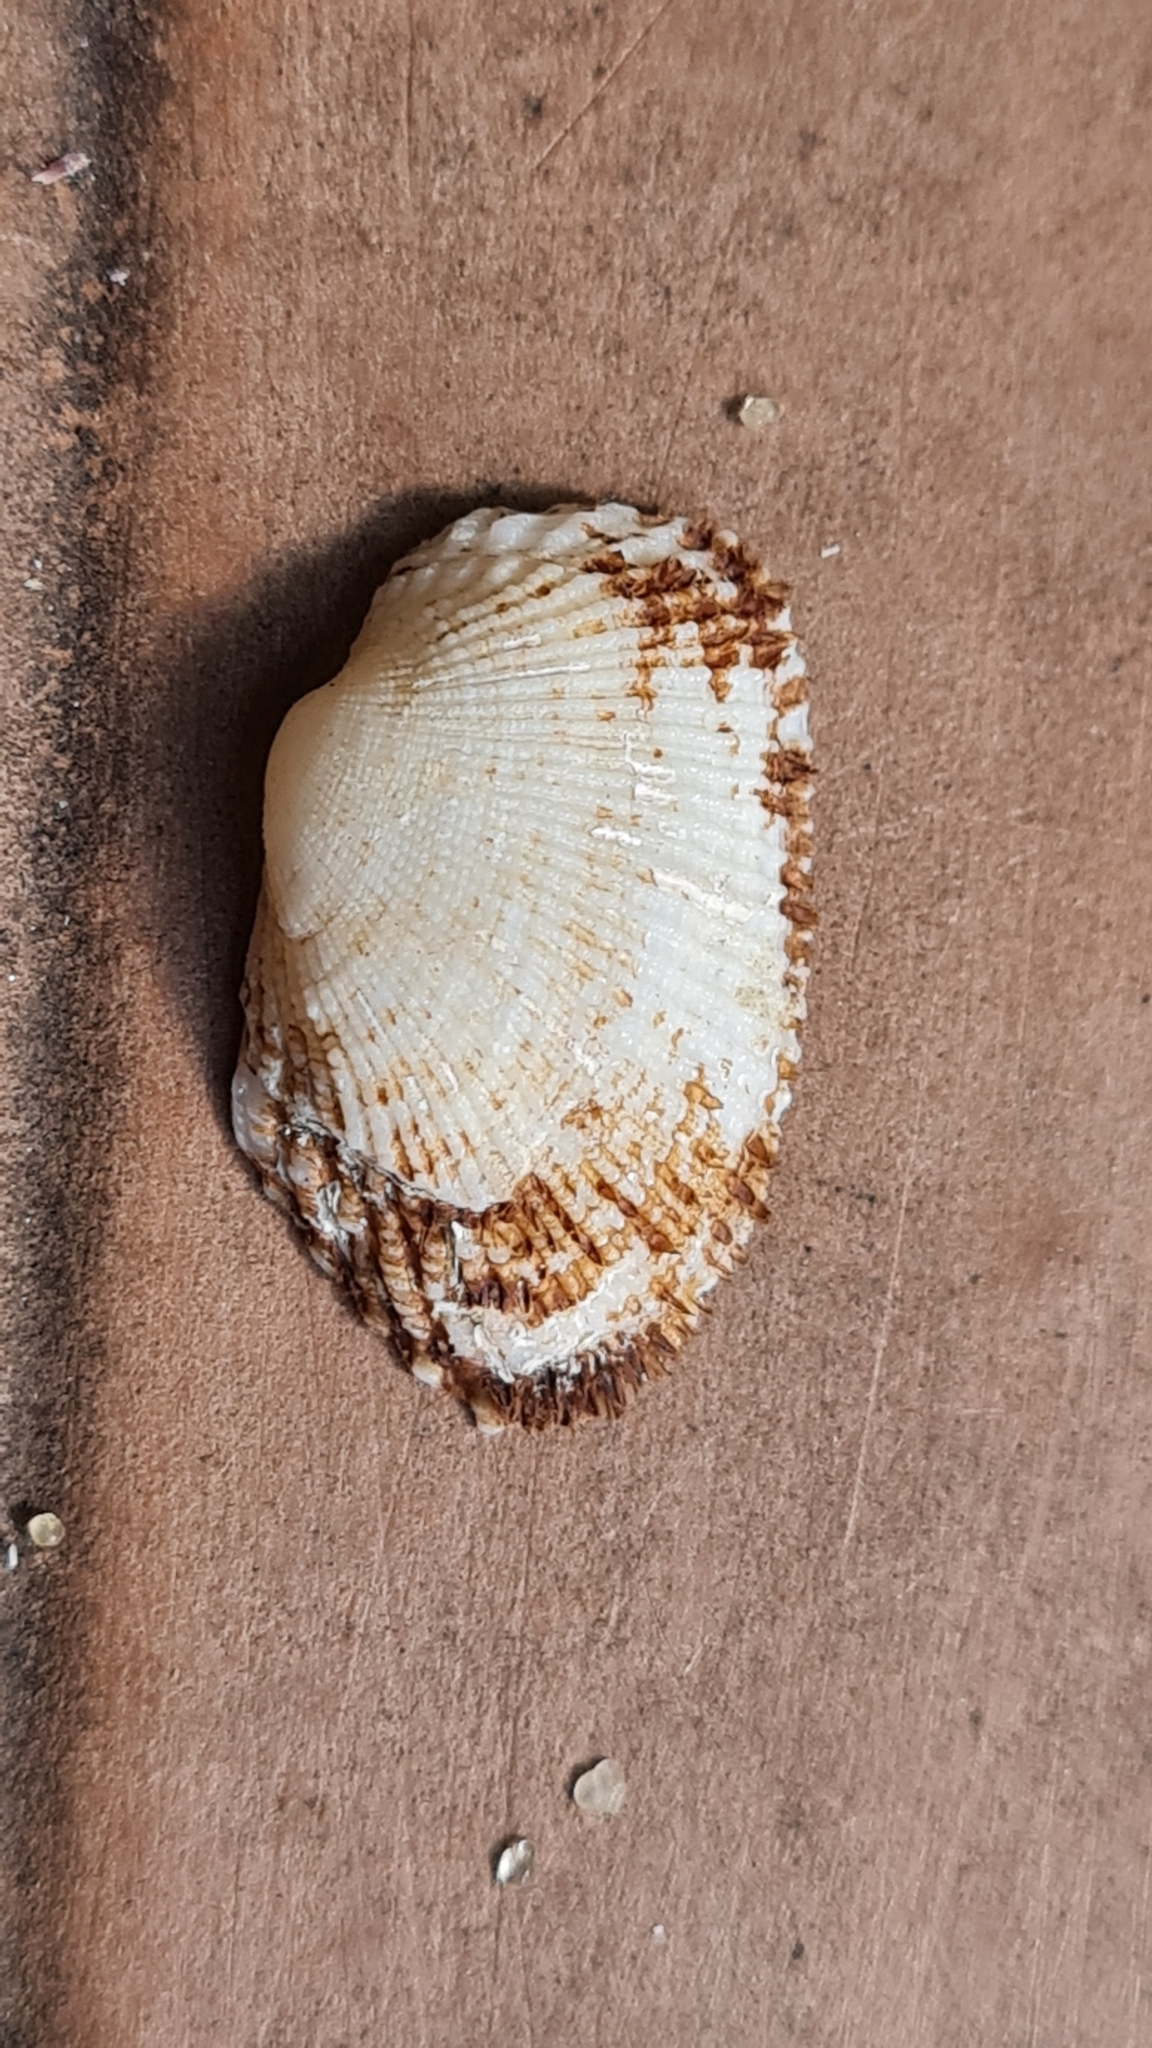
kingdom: Animalia
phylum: Mollusca
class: Bivalvia
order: Arcida
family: Arcidae
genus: Barbatia
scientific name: Barbatia candida
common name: White-beard ark
